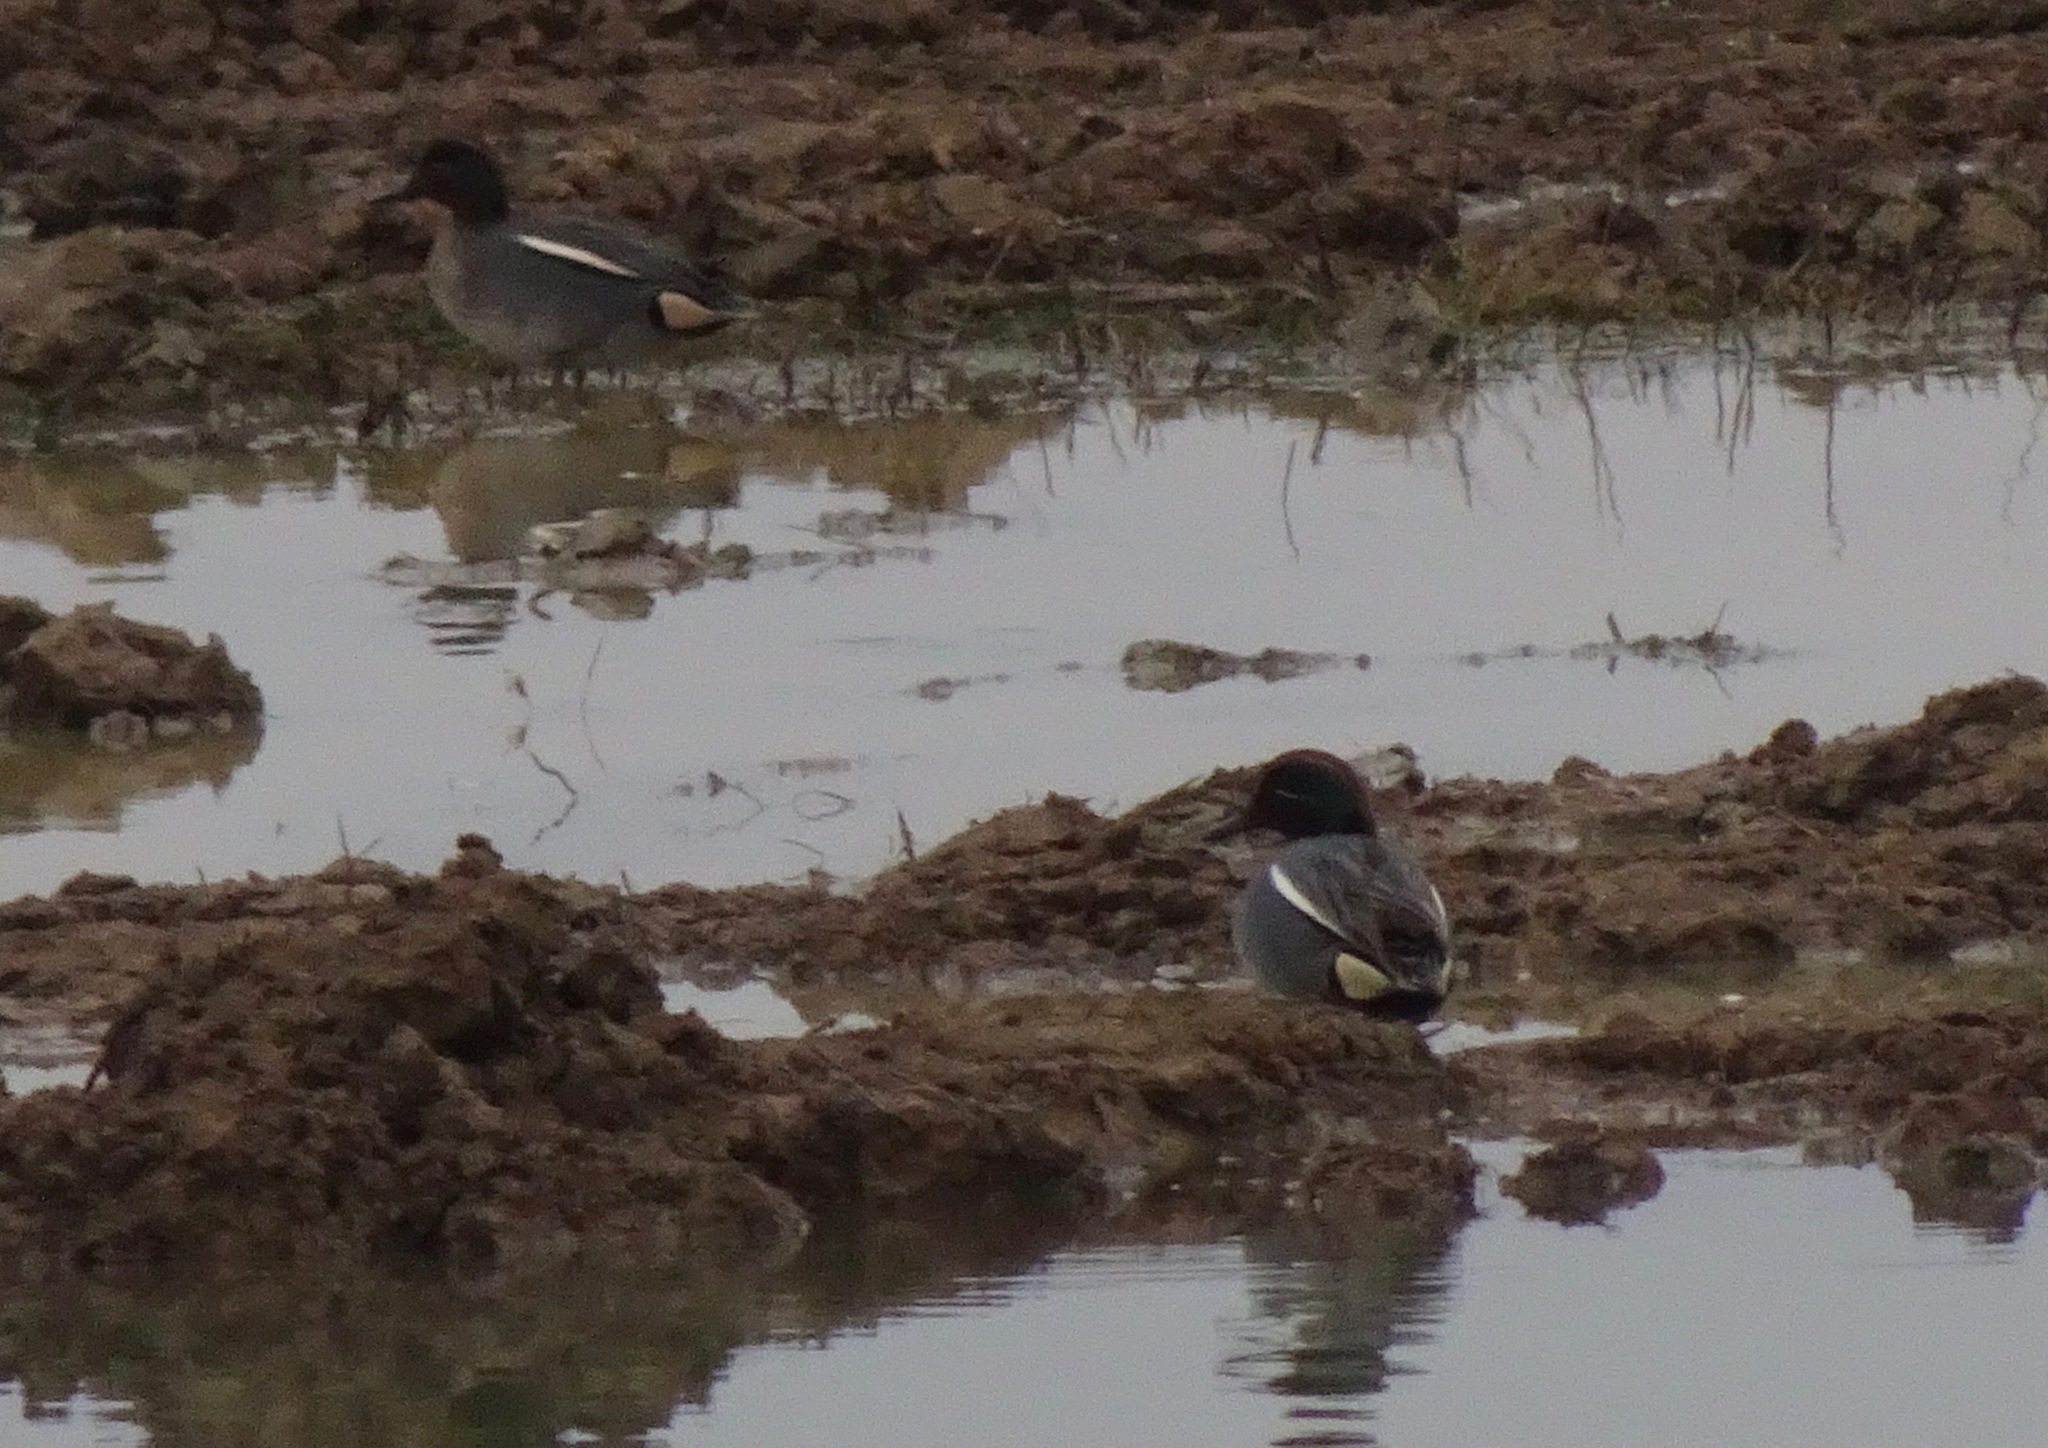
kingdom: Animalia
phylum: Chordata
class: Aves
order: Anseriformes
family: Anatidae
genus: Anas
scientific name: Anas crecca
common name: Eurasian teal
